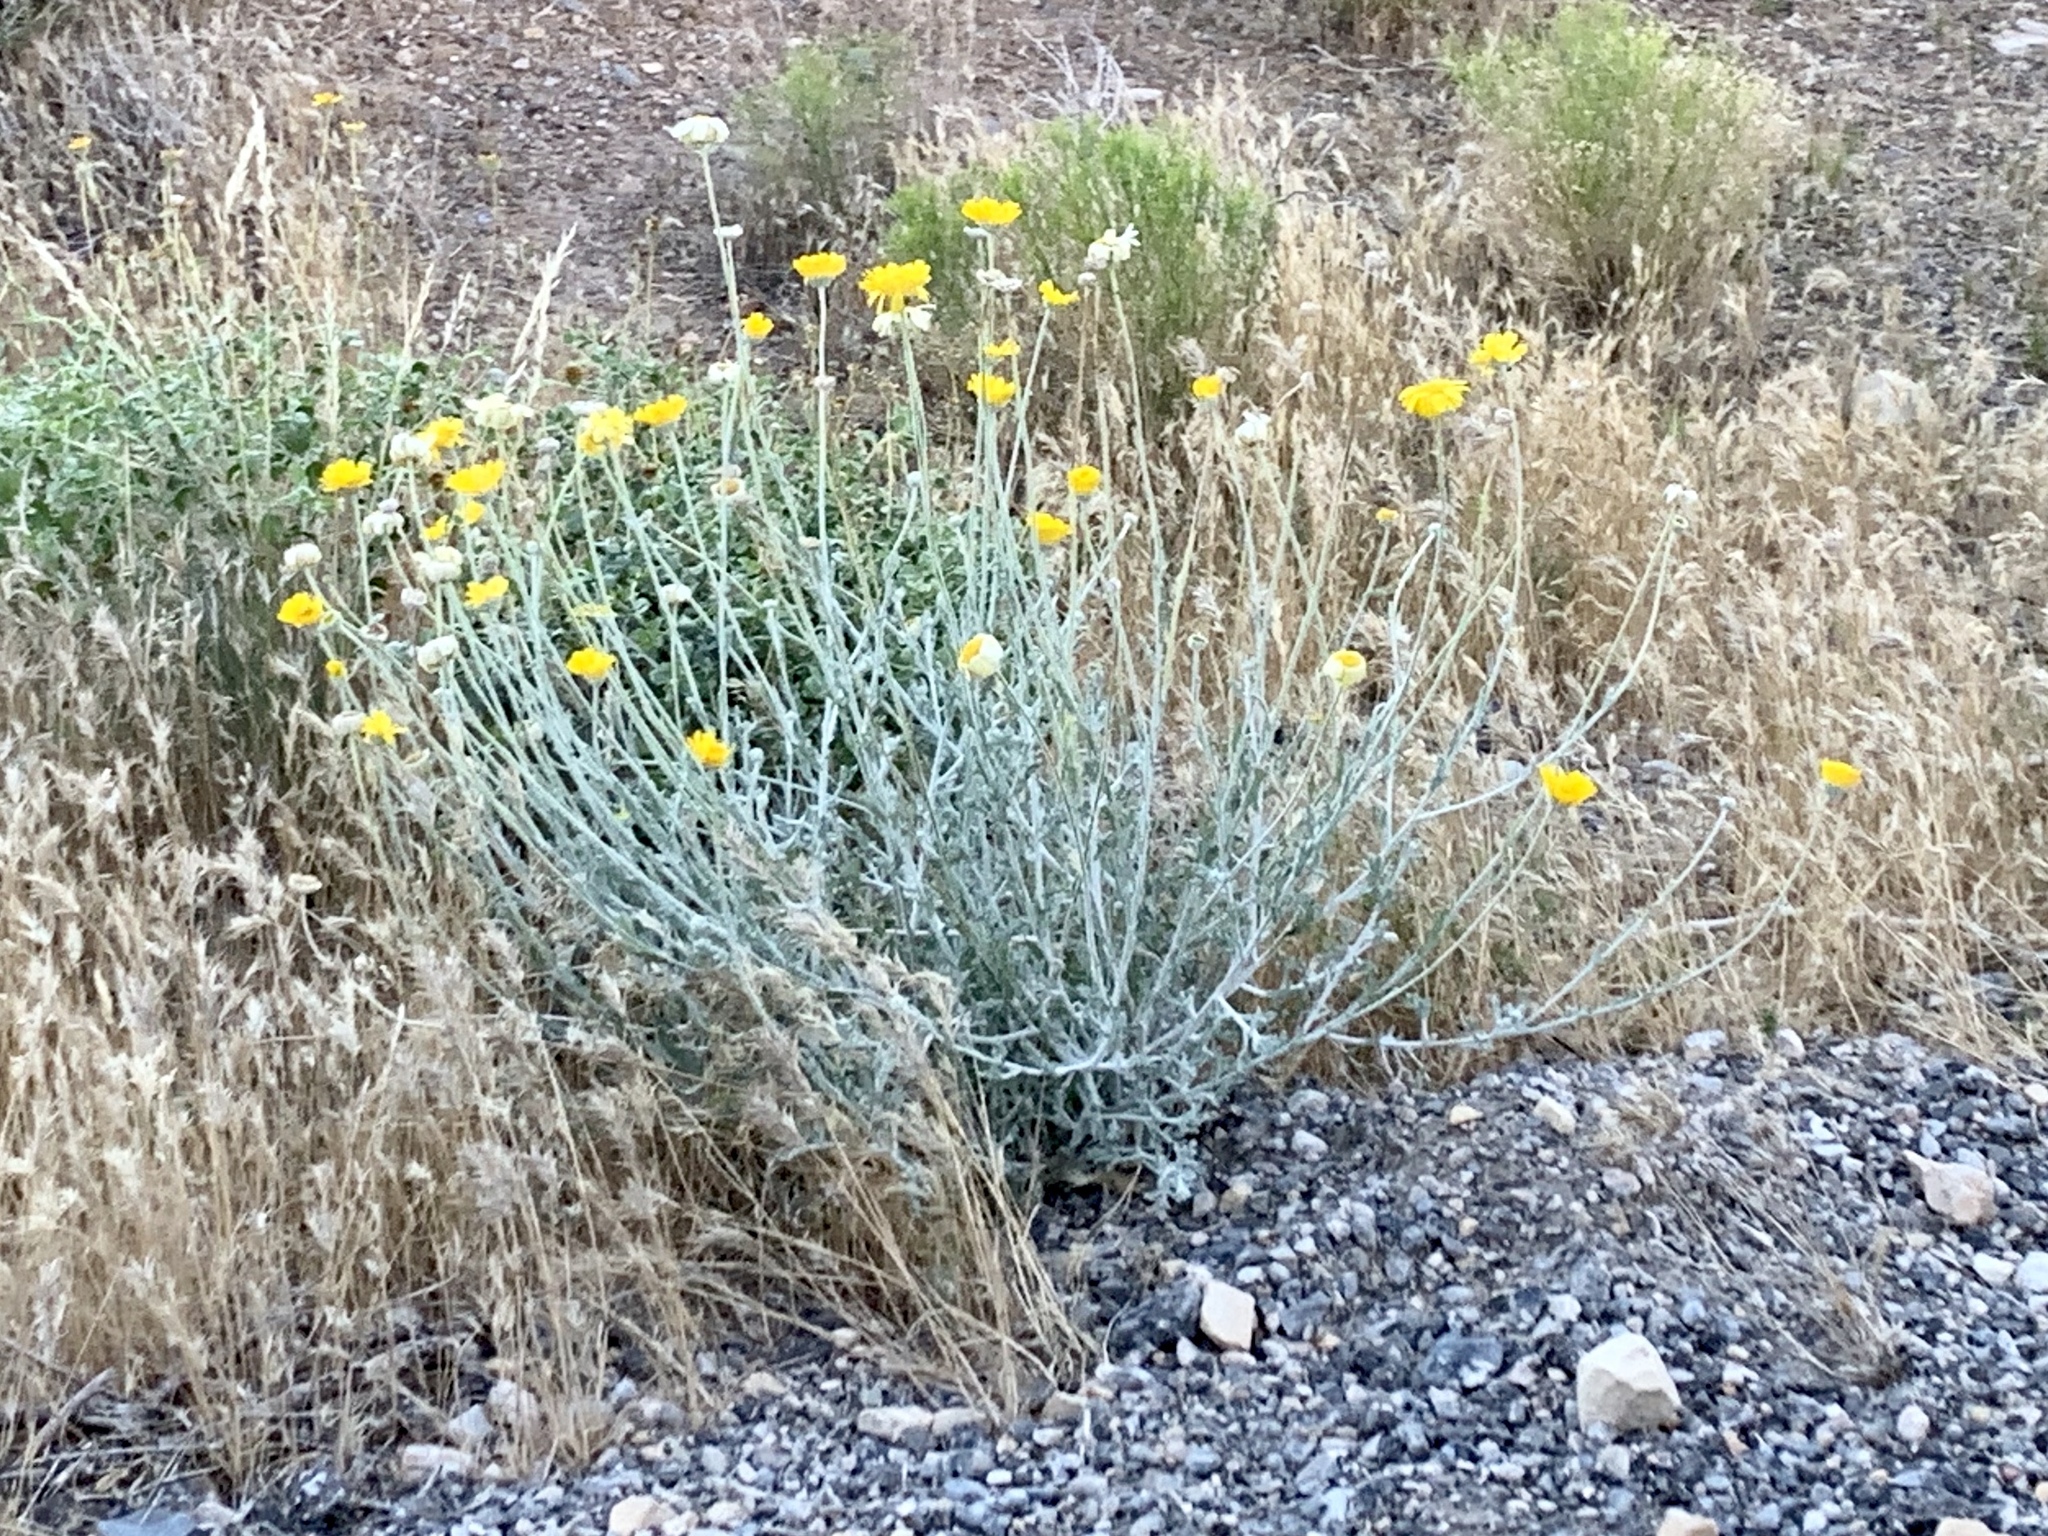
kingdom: Plantae
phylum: Tracheophyta
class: Magnoliopsida
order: Asterales
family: Asteraceae
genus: Baileya
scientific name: Baileya multiradiata
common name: Desert-marigold
